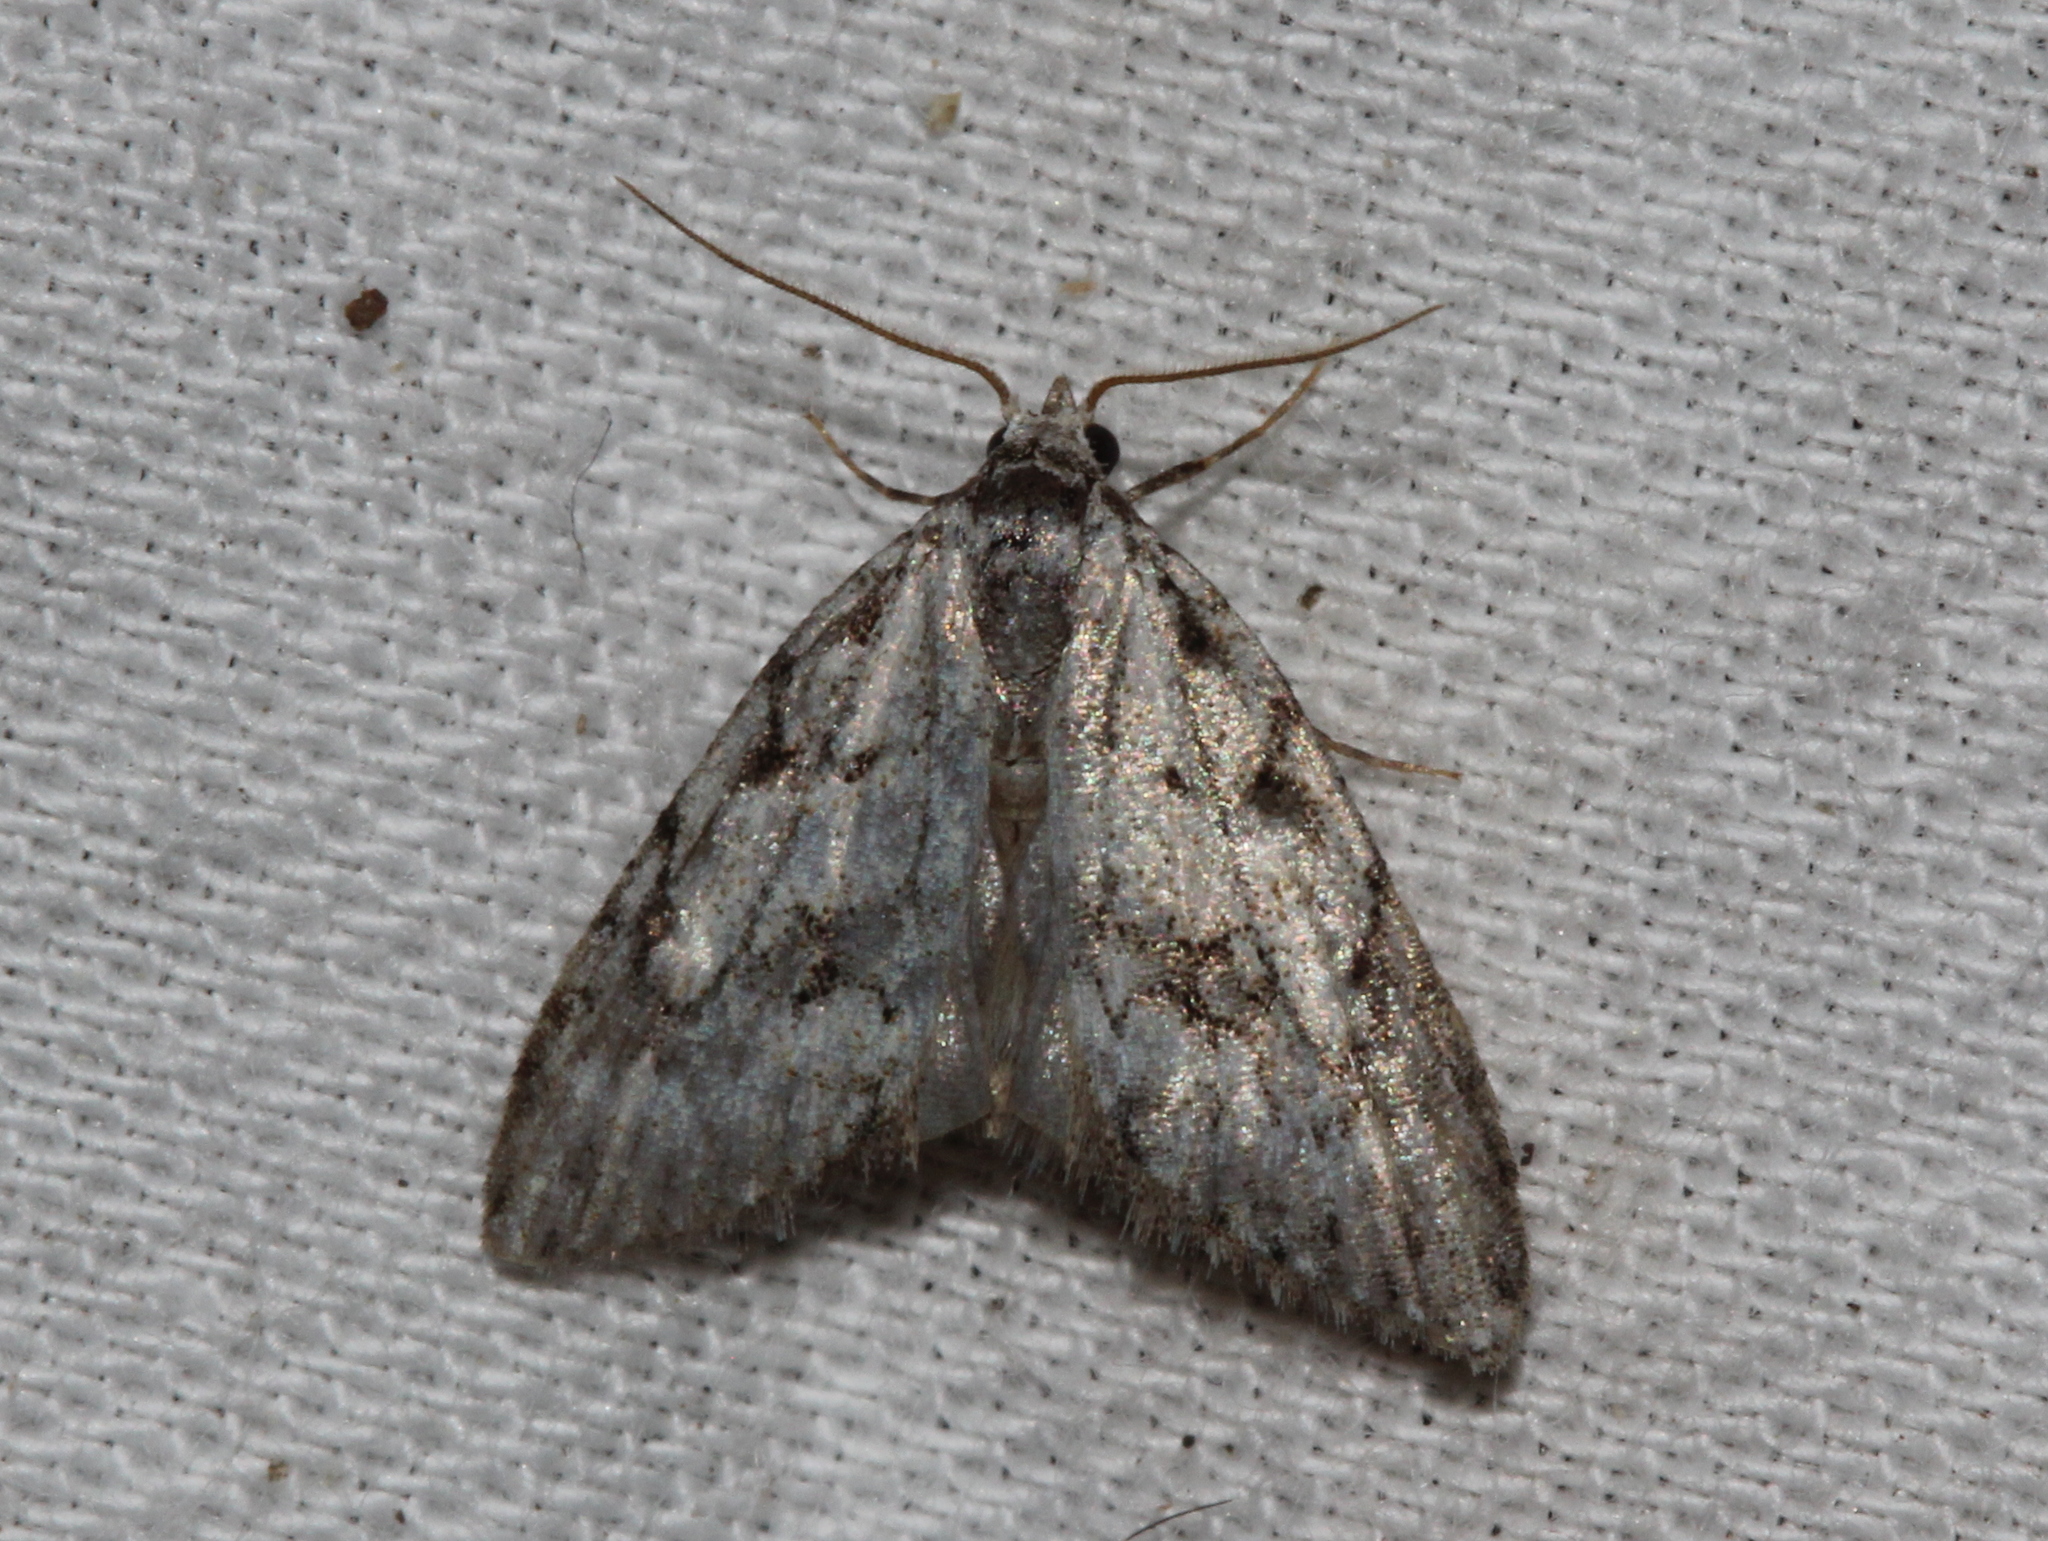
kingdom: Animalia
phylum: Arthropoda
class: Insecta
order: Lepidoptera
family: Nolidae
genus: Nola
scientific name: Nola cicatricalis
